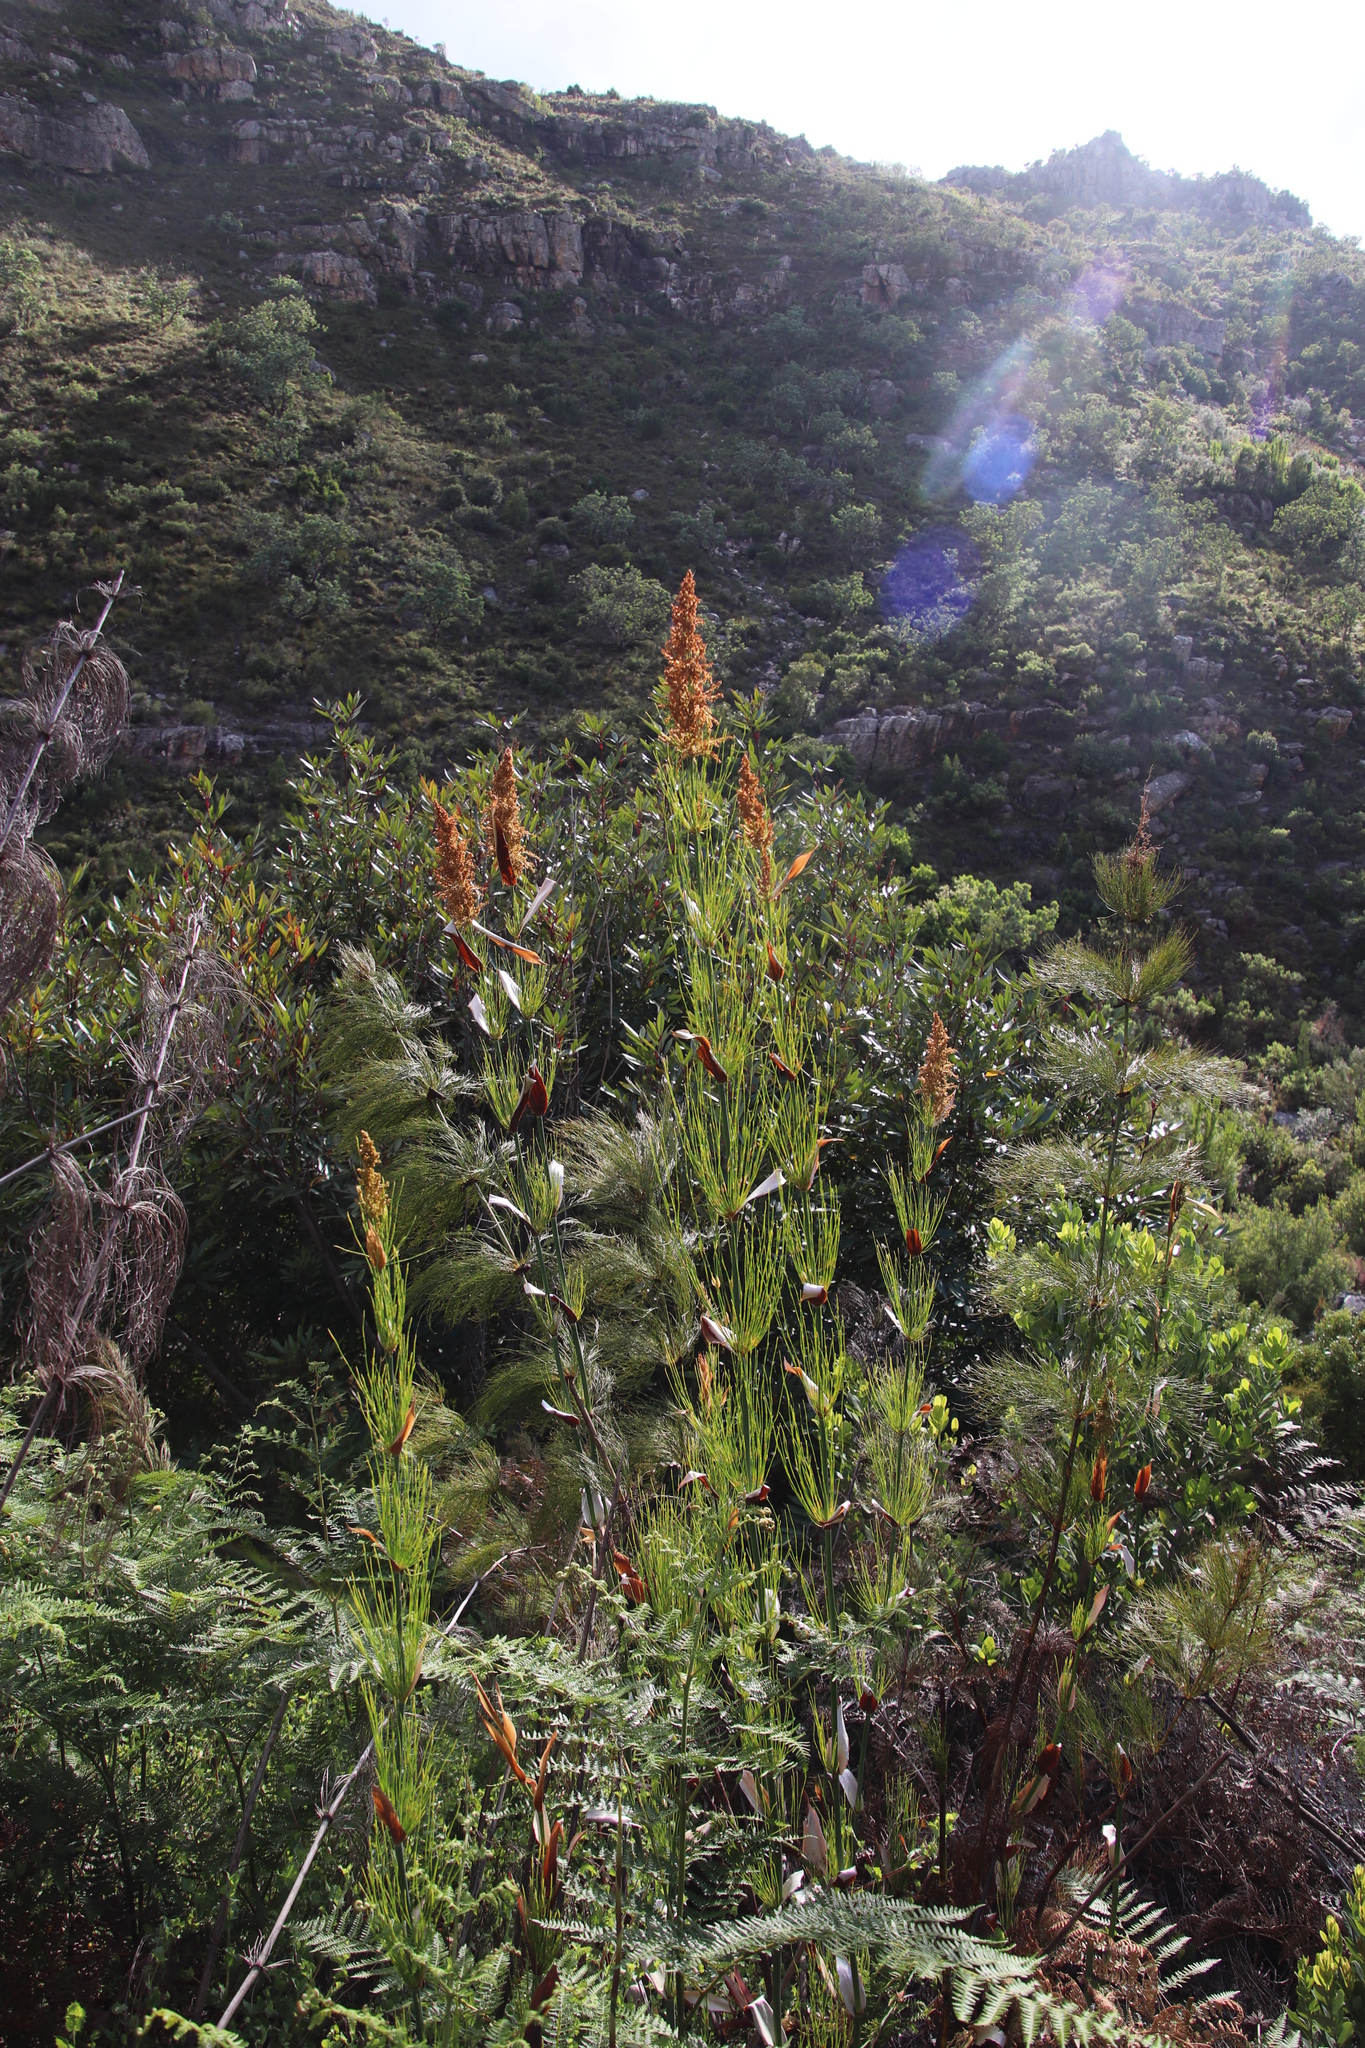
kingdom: Plantae
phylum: Tracheophyta
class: Liliopsida
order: Poales
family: Restionaceae
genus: Elegia
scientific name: Elegia capensis
